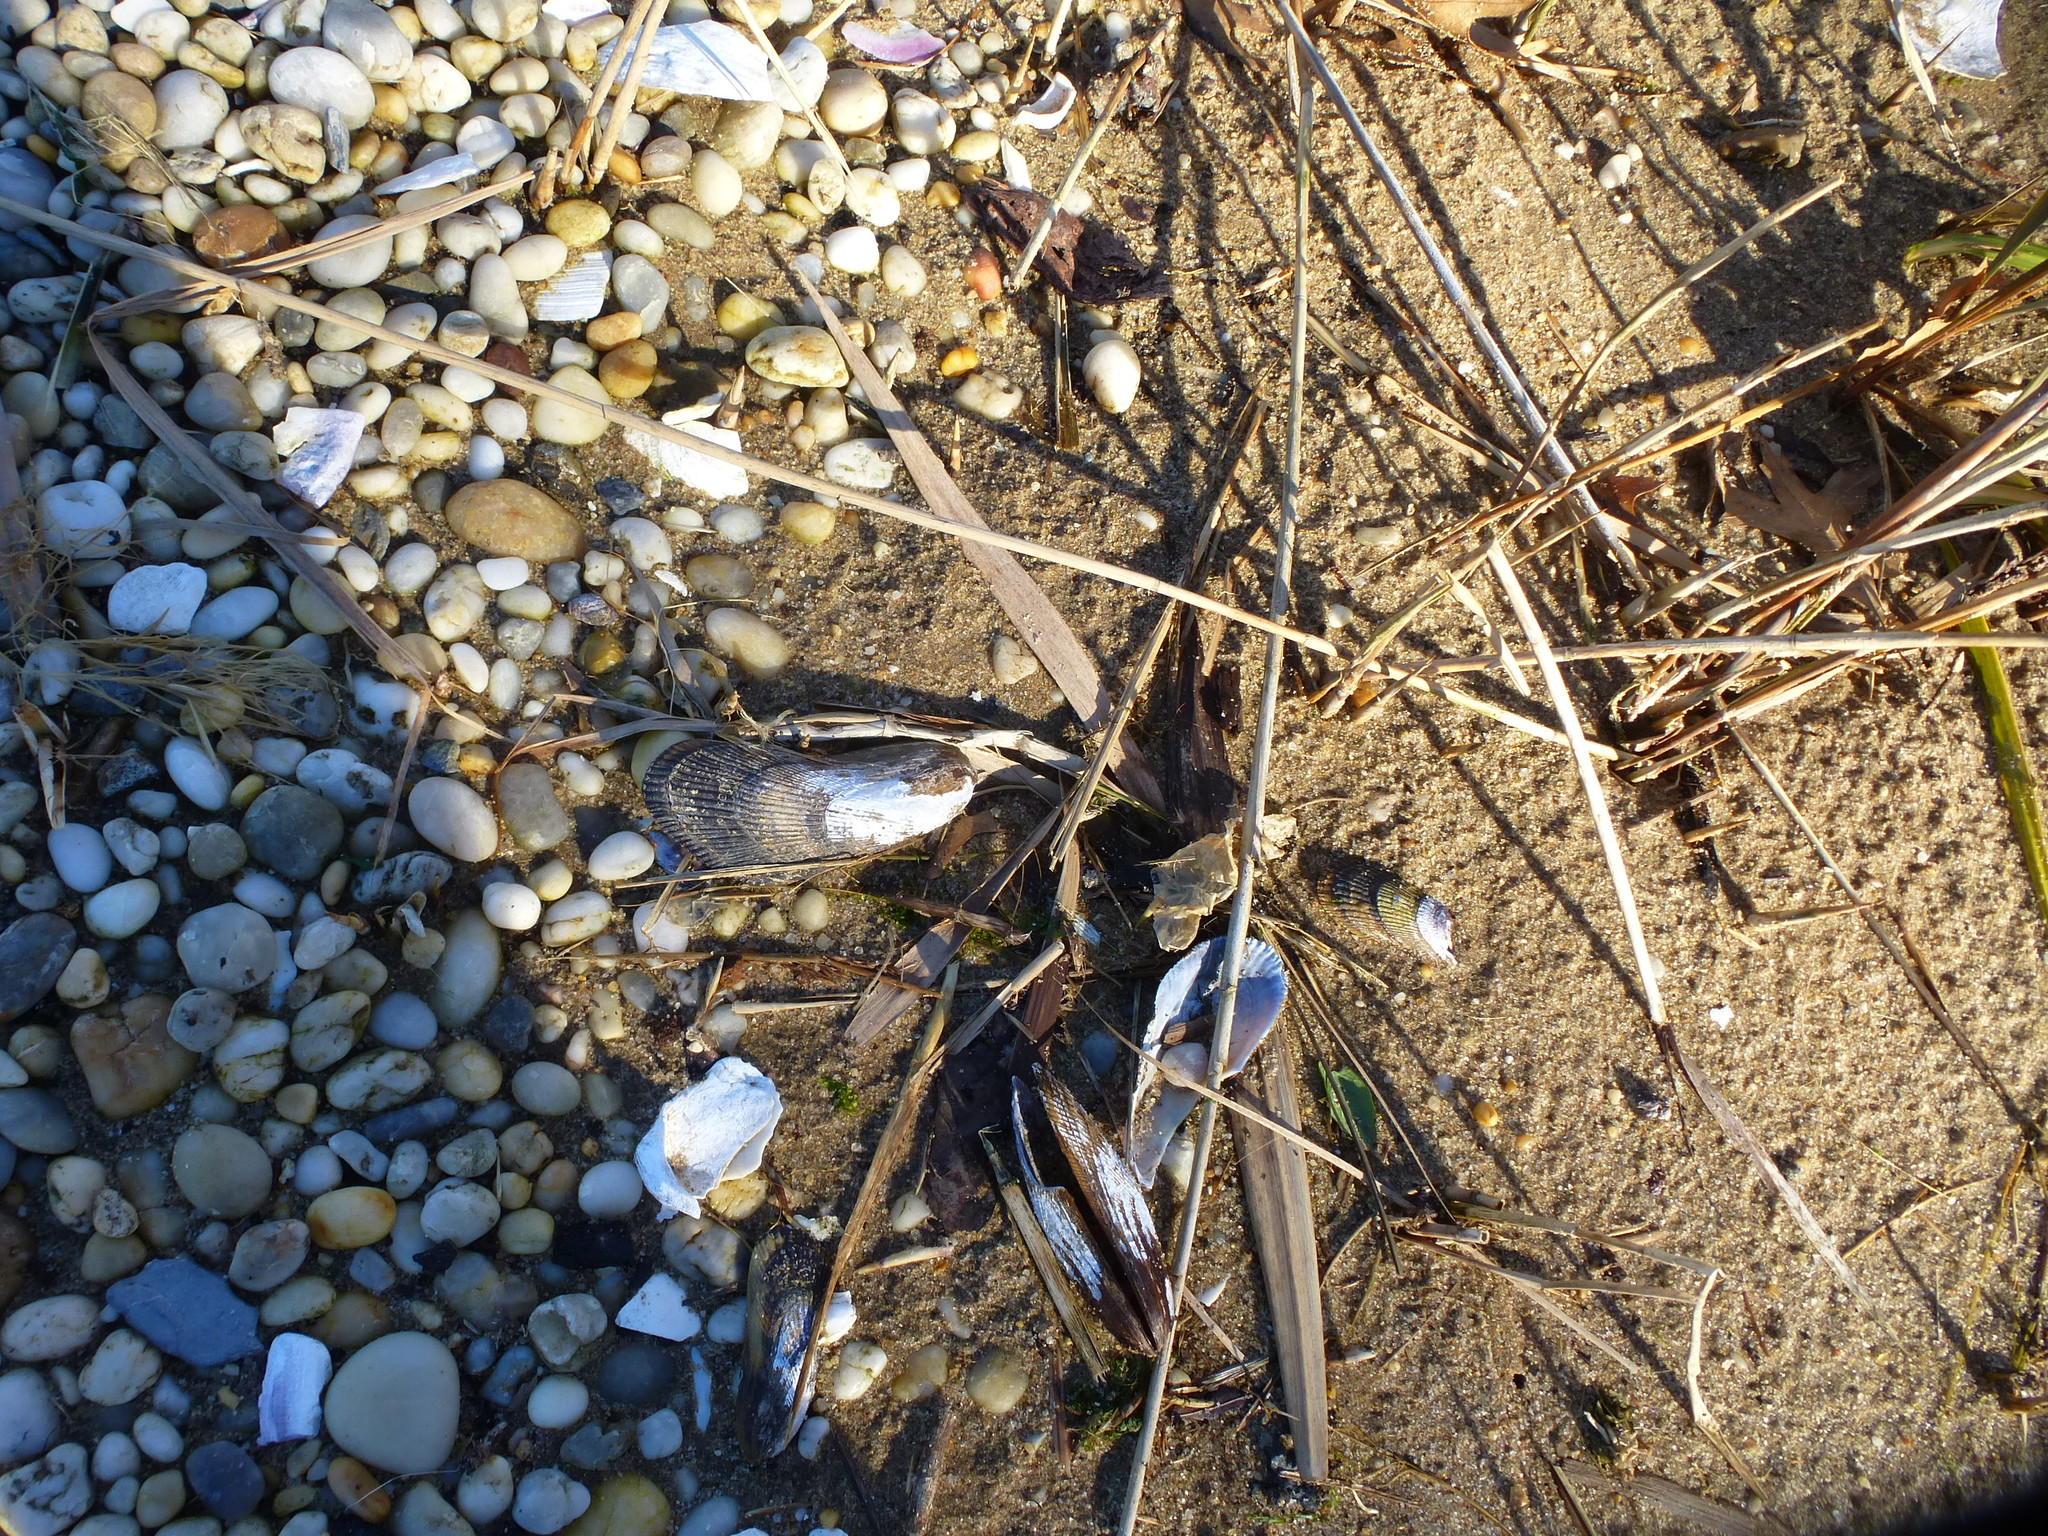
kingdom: Animalia
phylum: Mollusca
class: Bivalvia
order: Mytilida
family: Mytilidae
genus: Geukensia
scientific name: Geukensia demissa
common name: Ribbed mussel
